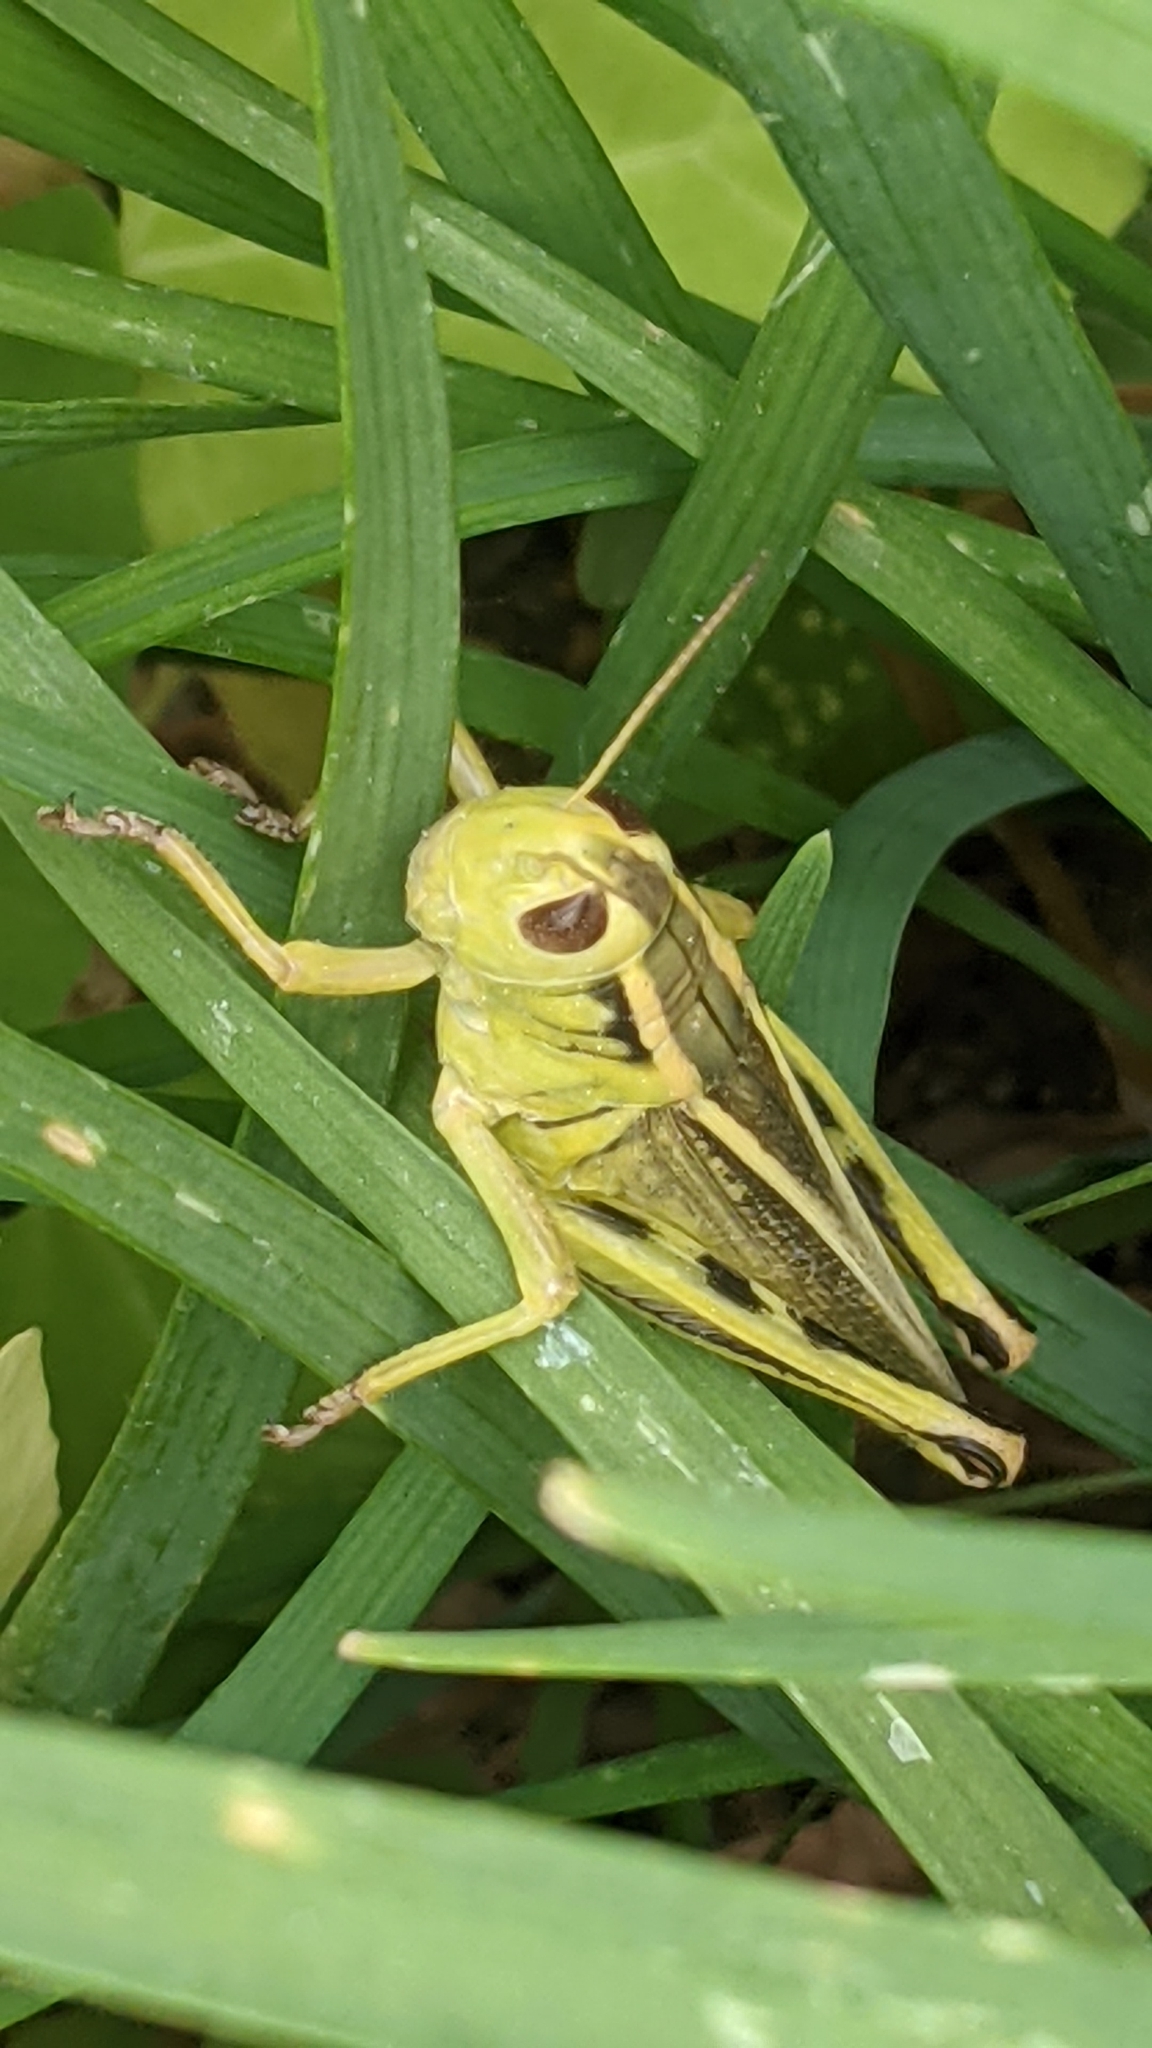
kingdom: Animalia
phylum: Arthropoda
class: Insecta
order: Orthoptera
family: Acrididae
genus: Melanoplus
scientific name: Melanoplus bivittatus
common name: Two-striped grasshopper
